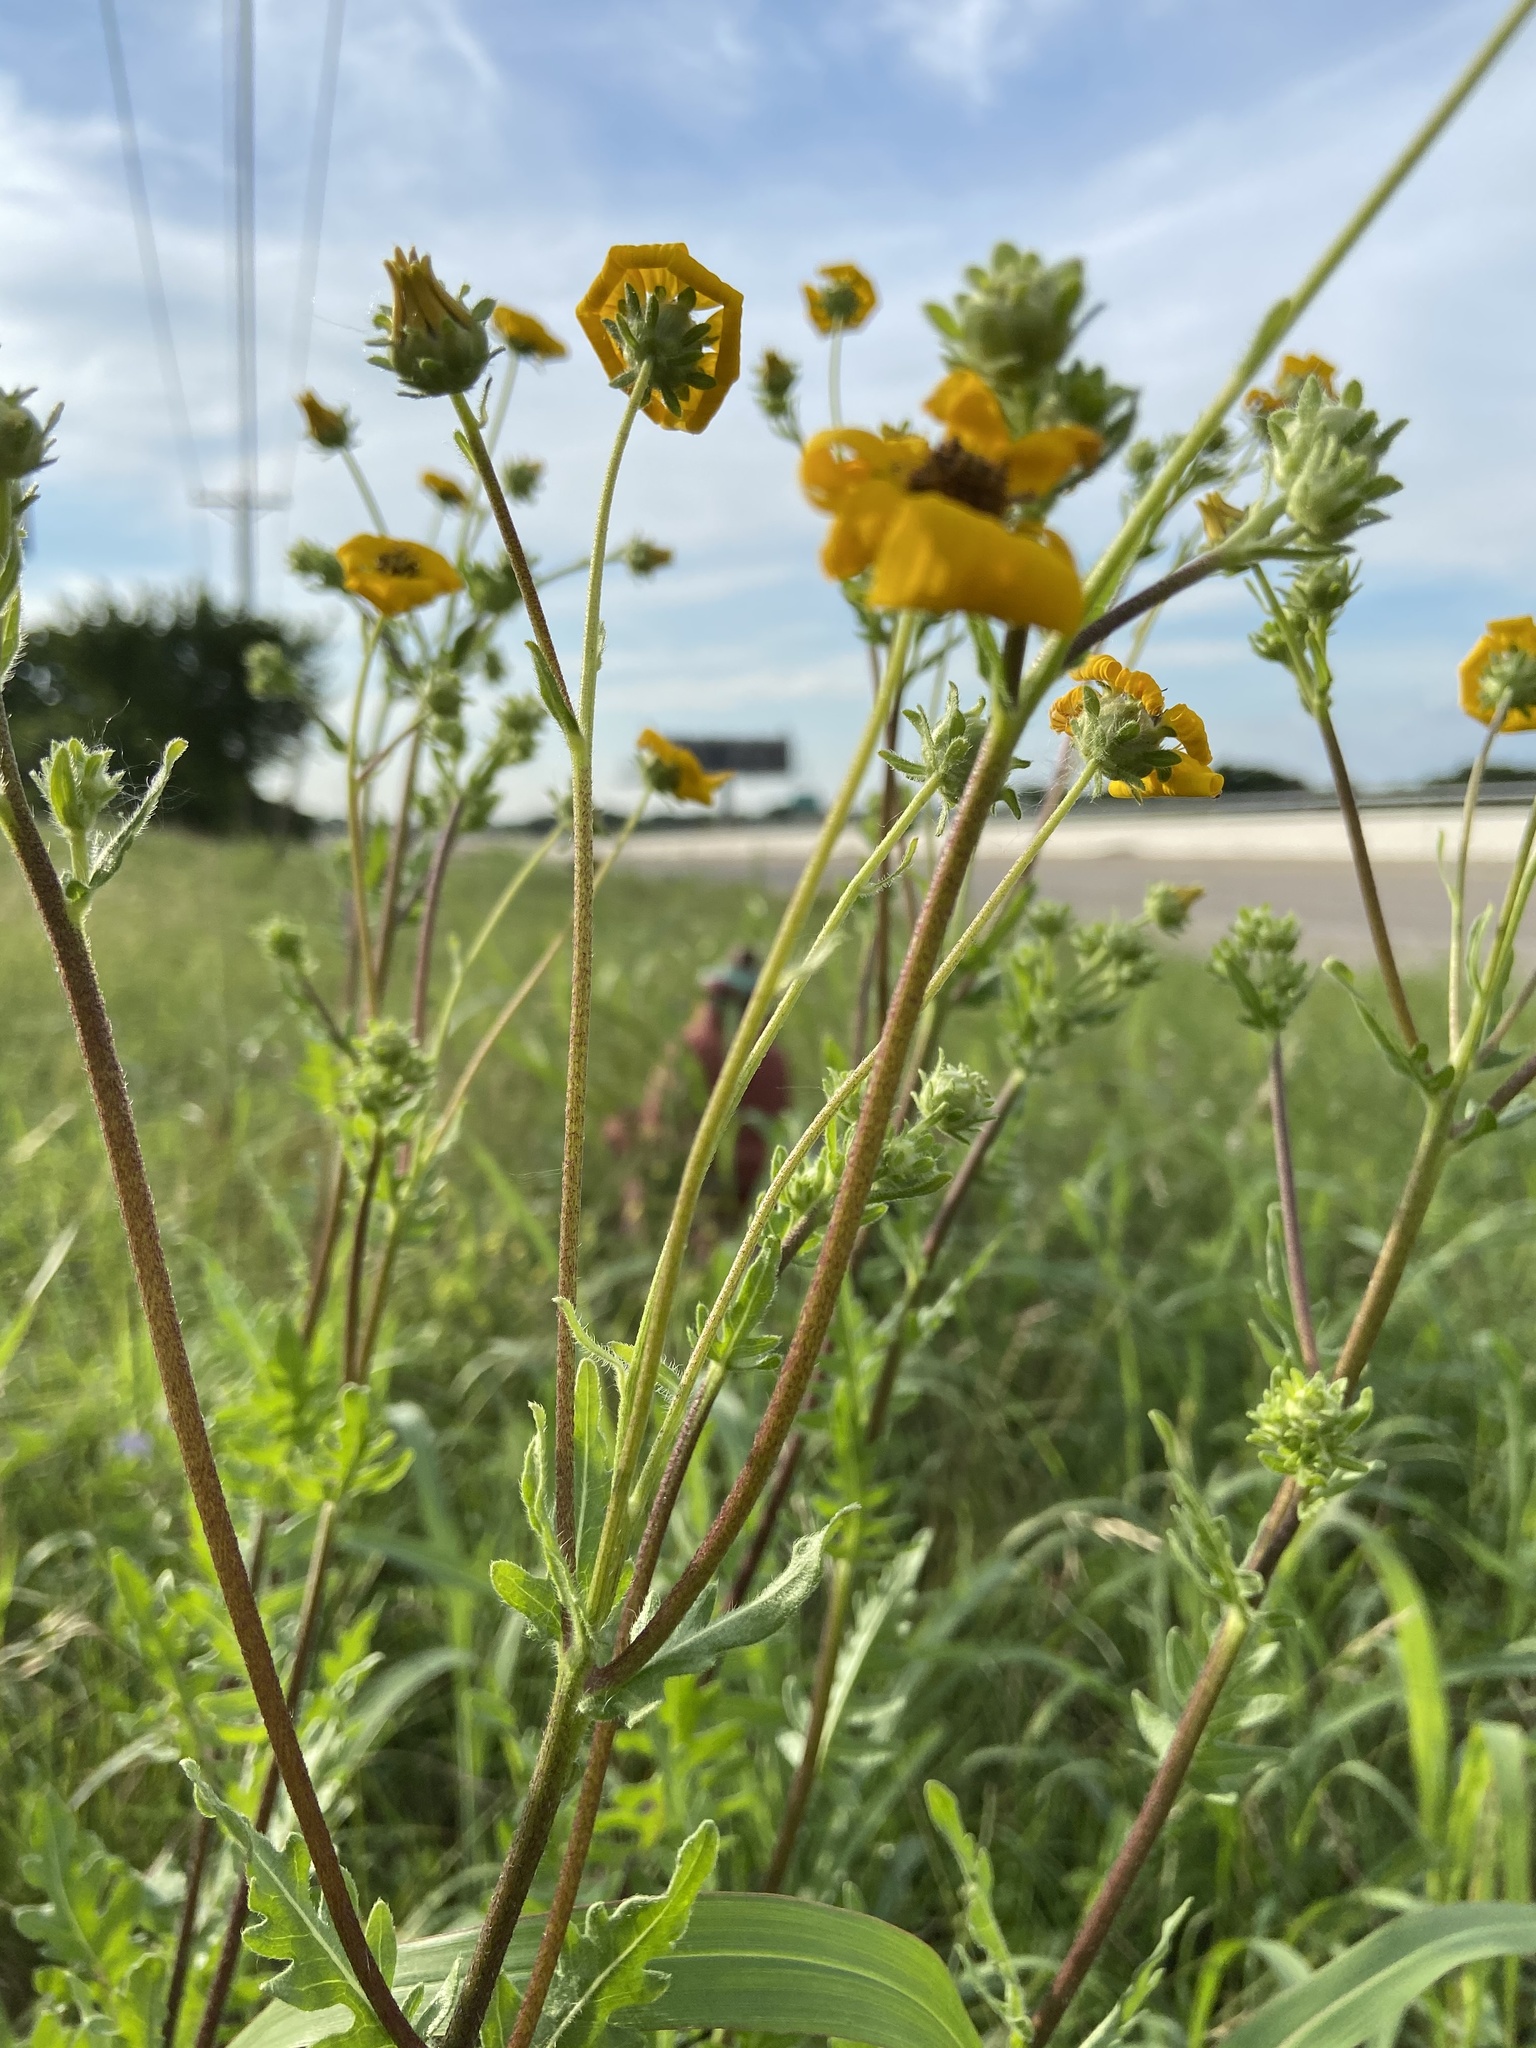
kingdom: Plantae
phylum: Tracheophyta
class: Magnoliopsida
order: Asterales
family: Asteraceae
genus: Engelmannia
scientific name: Engelmannia peristenia
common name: Engelmann's daisy
